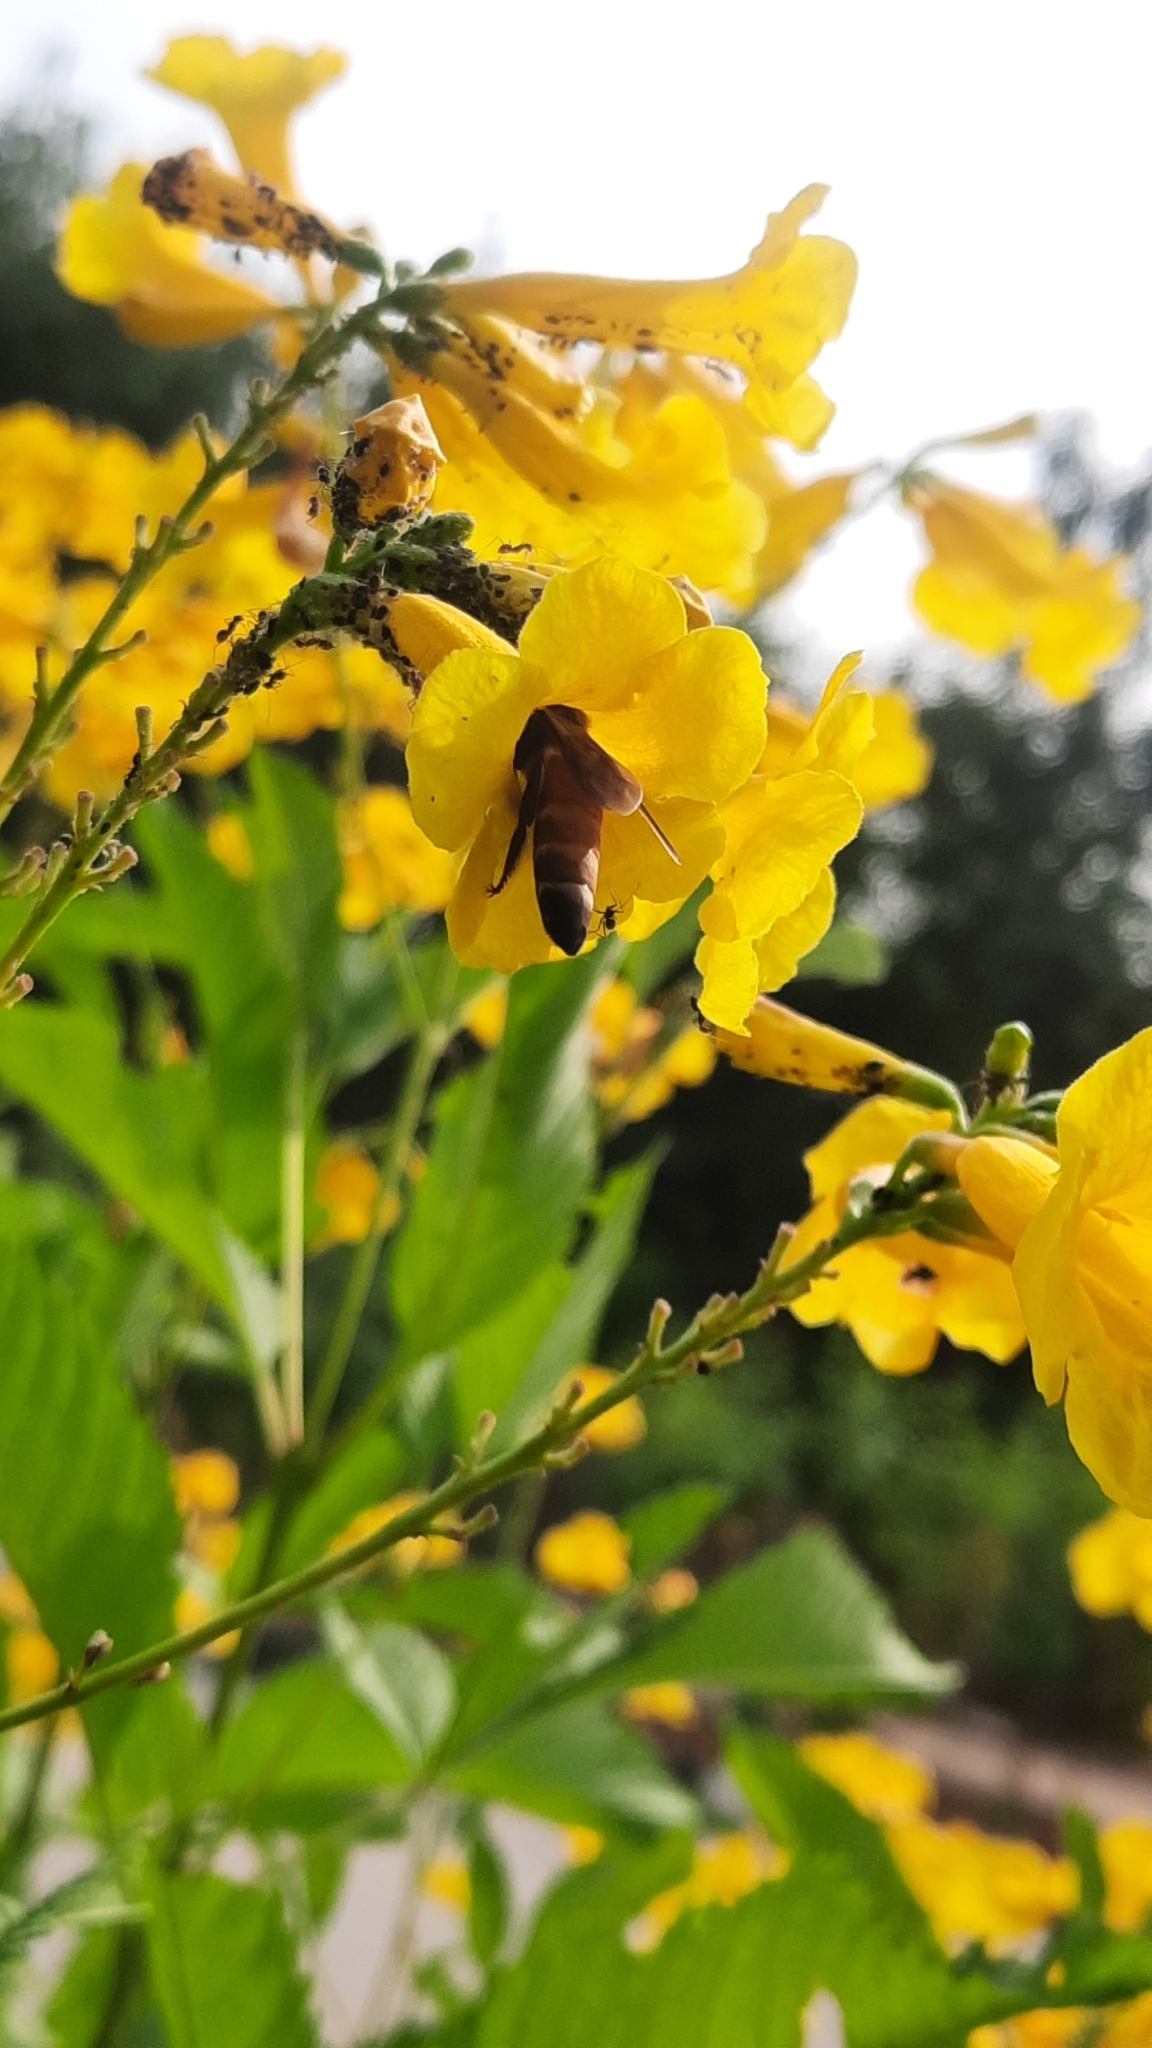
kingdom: Animalia
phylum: Arthropoda
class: Insecta
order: Hymenoptera
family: Apidae
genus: Apis
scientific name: Apis dorsata
